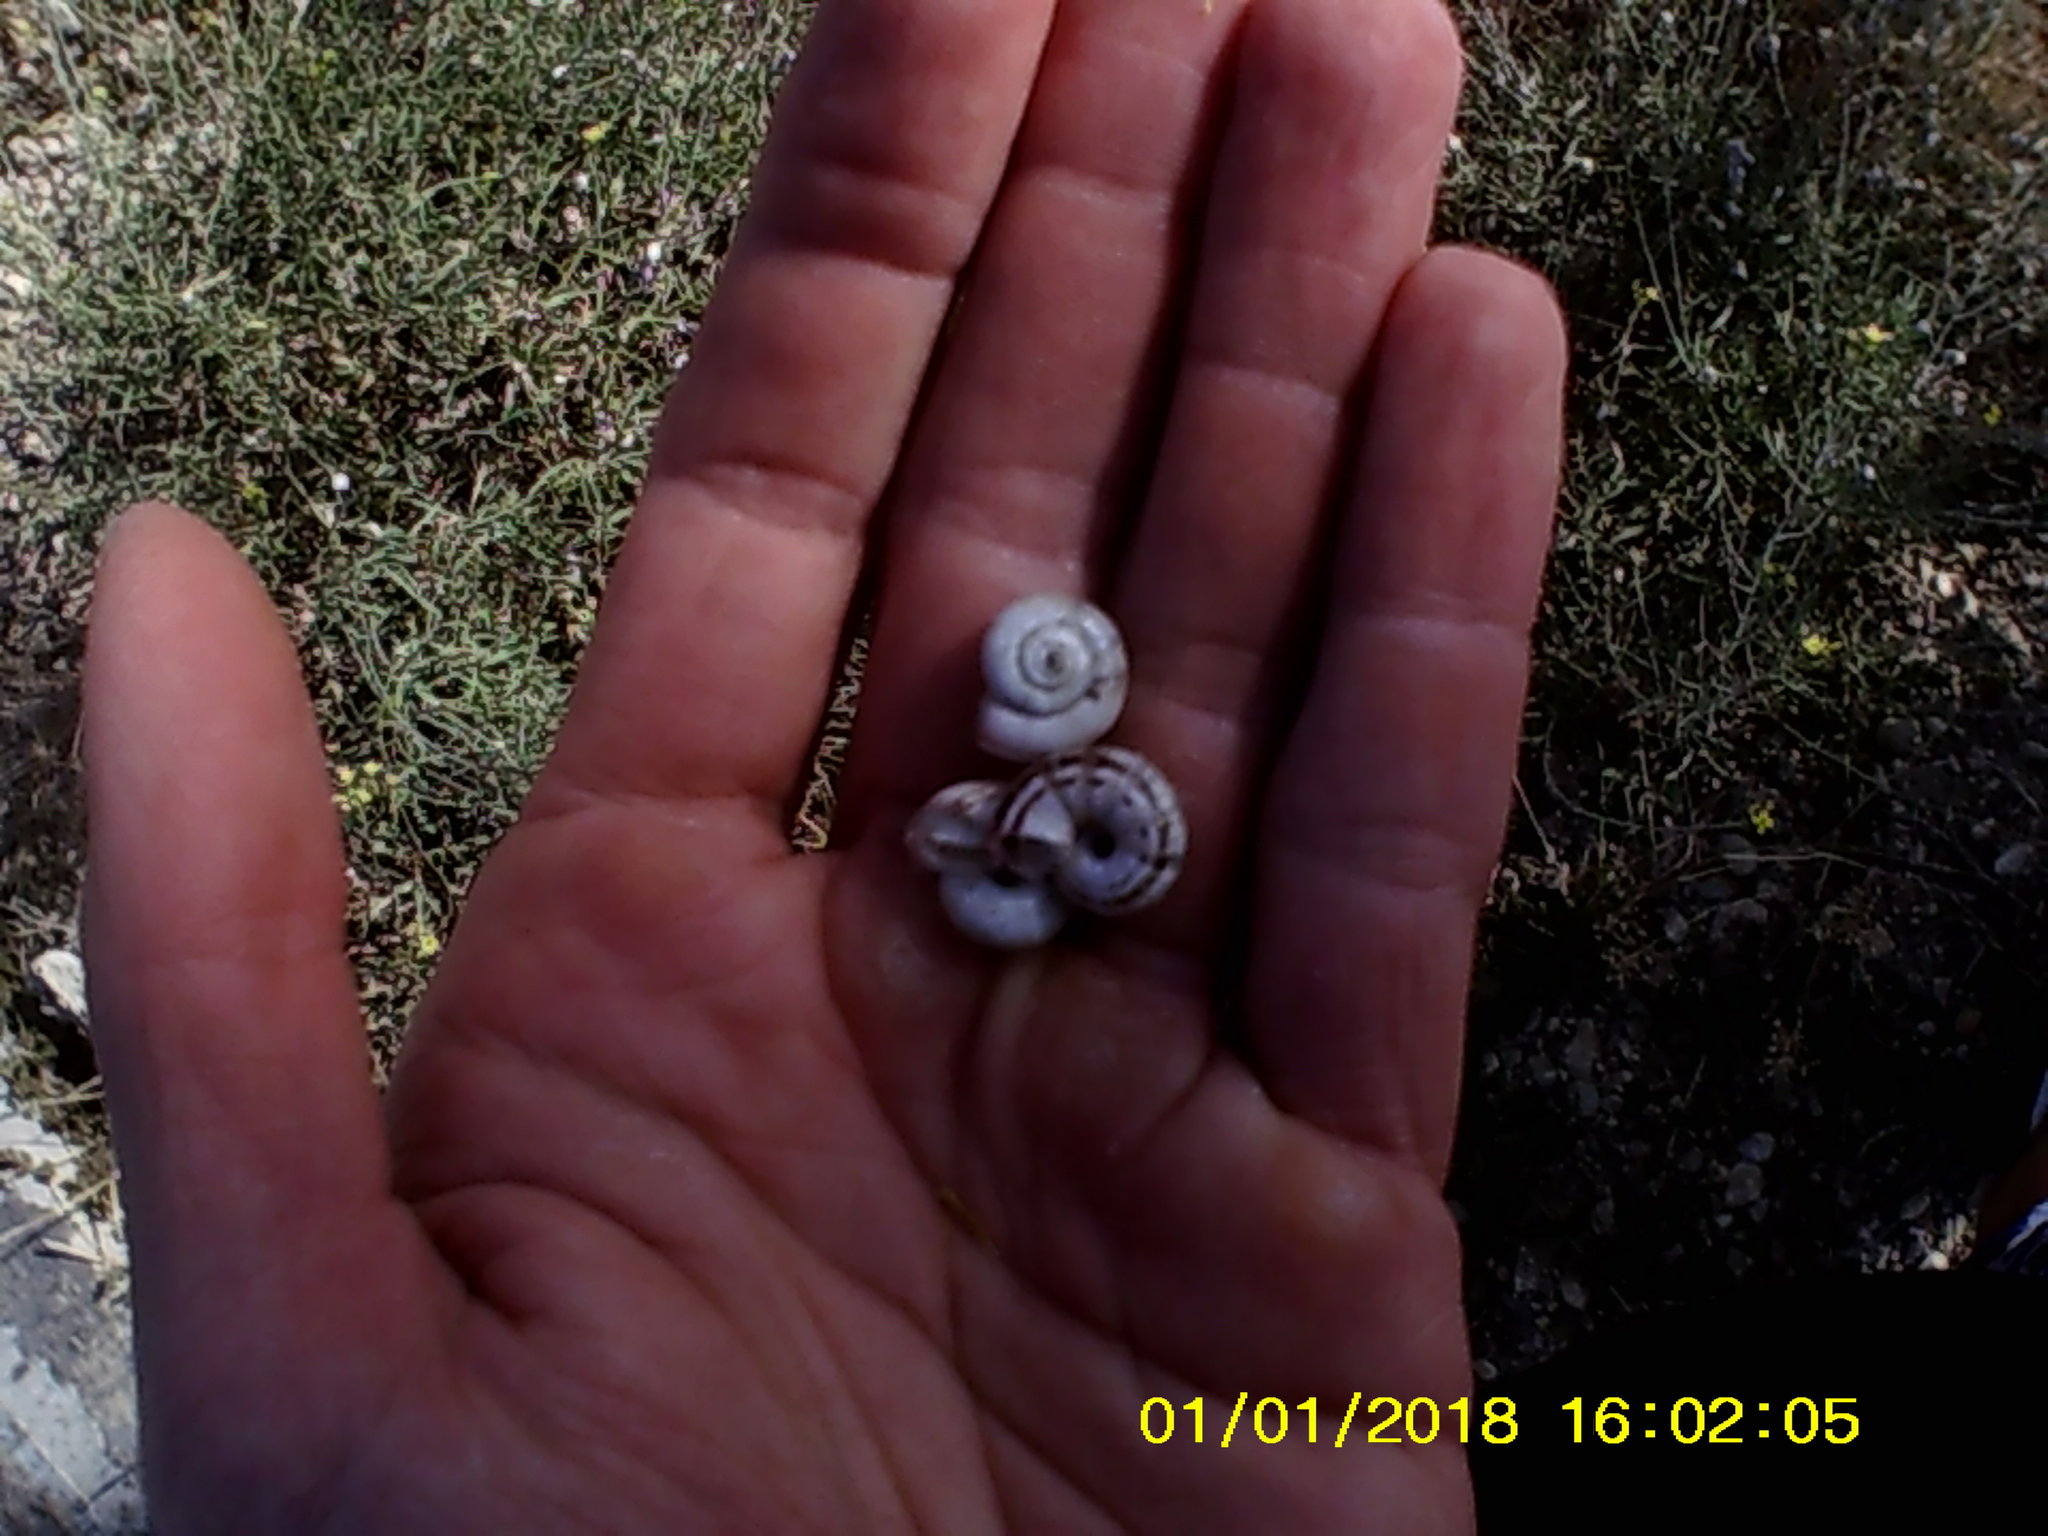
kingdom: Animalia
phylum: Mollusca
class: Gastropoda
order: Stylommatophora
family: Geomitridae
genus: Xeropicta
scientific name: Xeropicta derbentina
